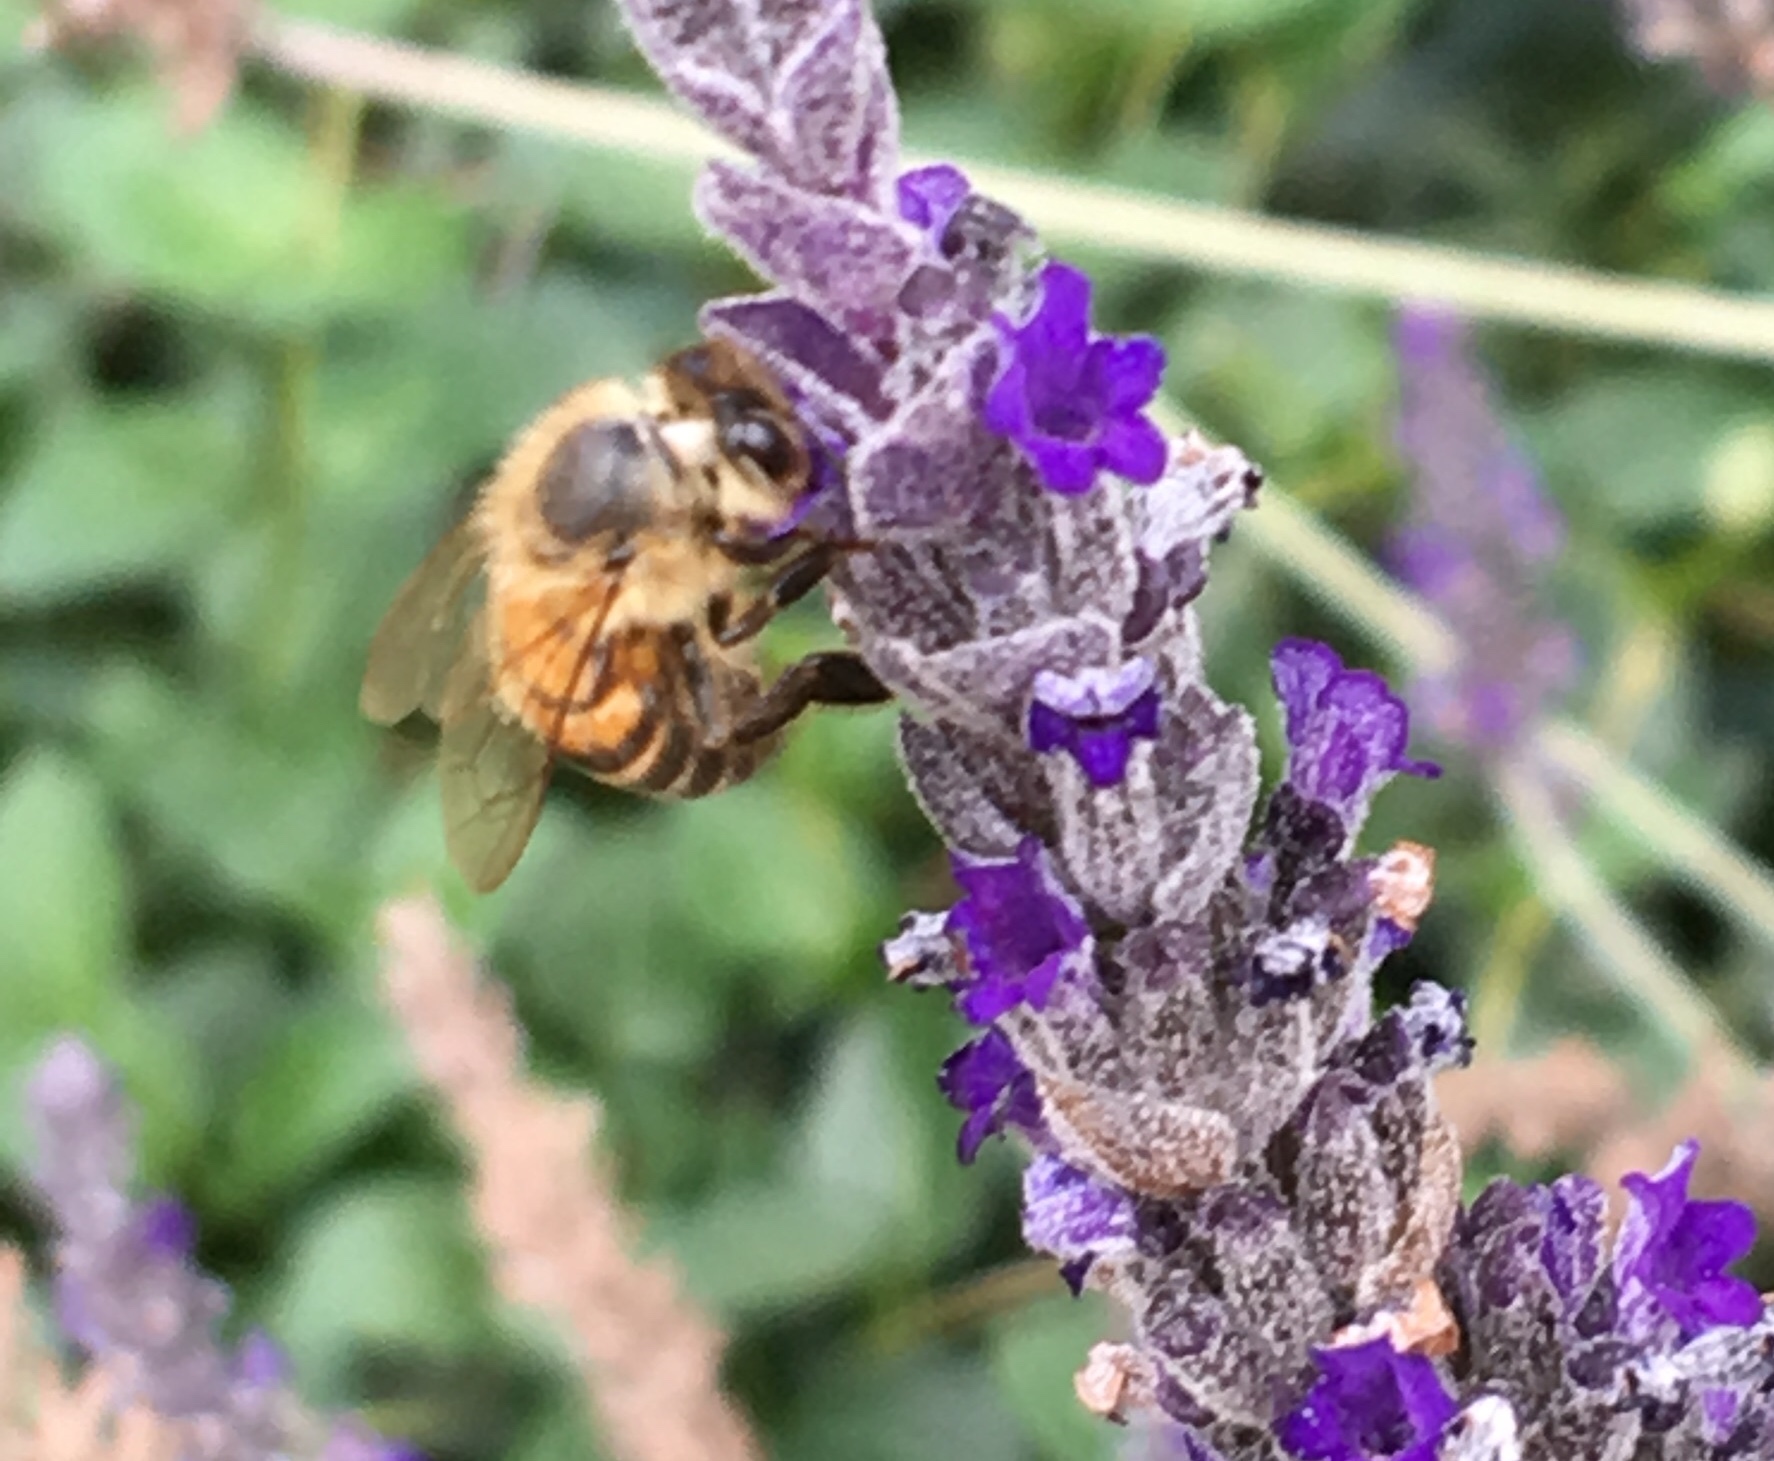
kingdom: Animalia
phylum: Arthropoda
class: Insecta
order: Hymenoptera
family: Apidae
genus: Apis
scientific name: Apis mellifera
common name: Honey bee
